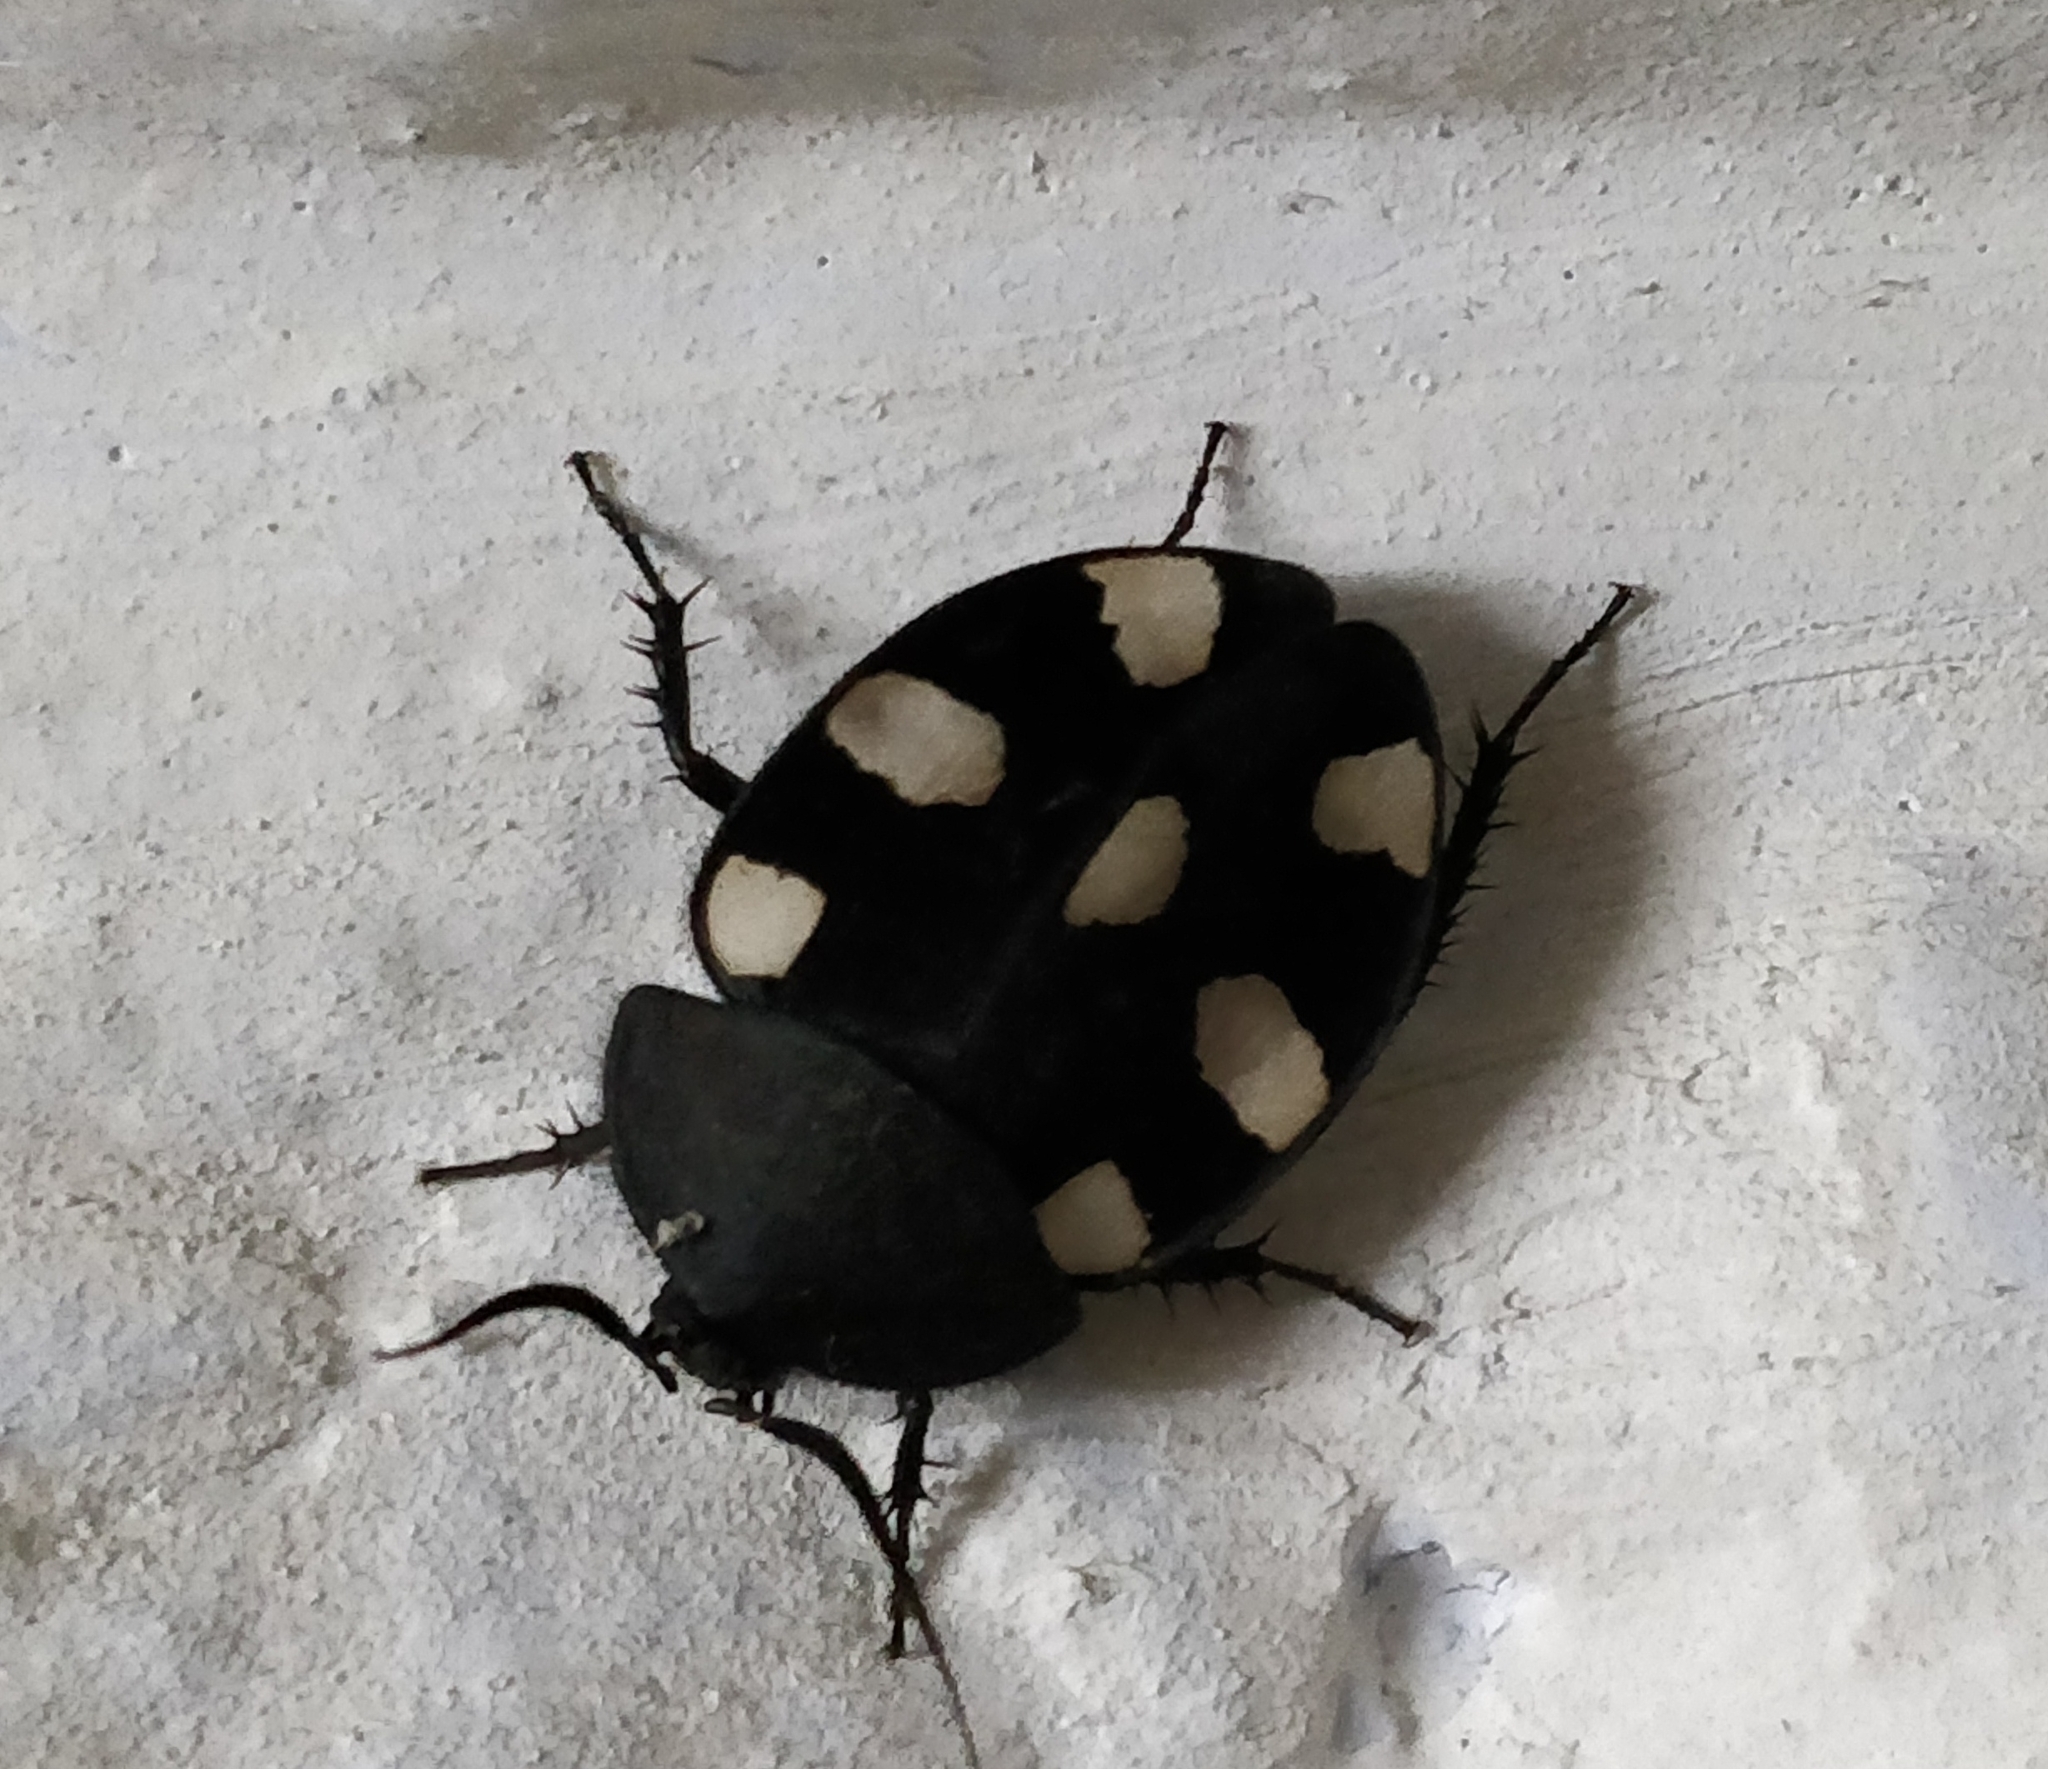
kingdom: Animalia
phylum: Arthropoda
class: Insecta
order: Blattodea
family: Corydiidae
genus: Therea
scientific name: Therea petiveriana
